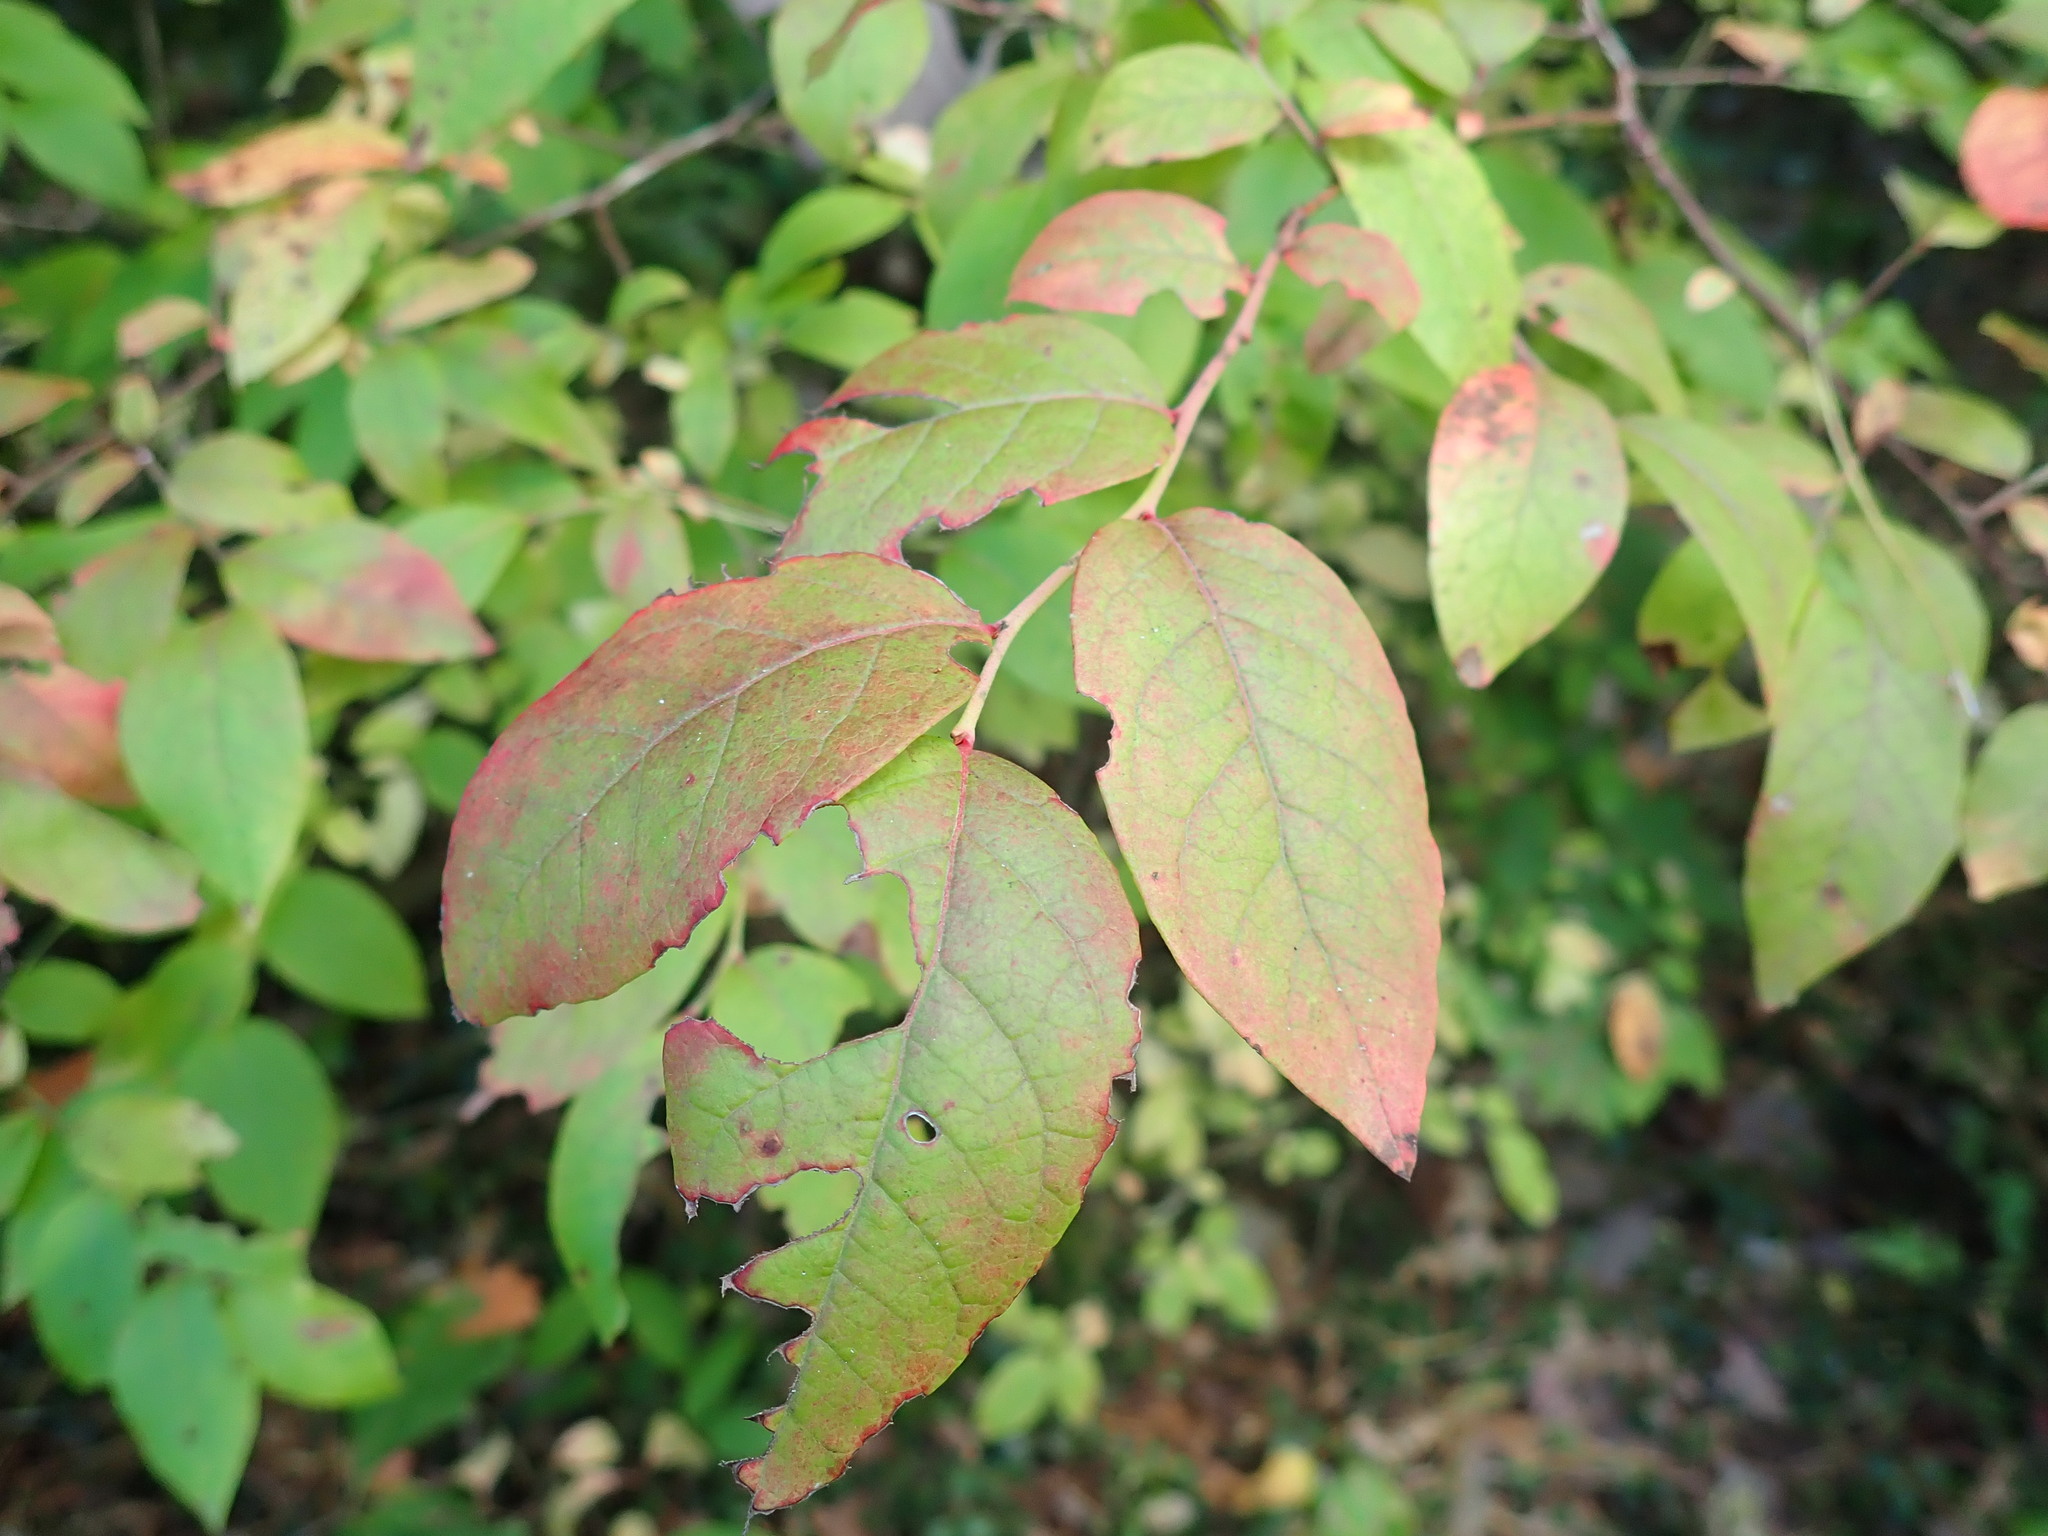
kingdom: Plantae
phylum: Tracheophyta
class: Magnoliopsida
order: Ericales
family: Ericaceae
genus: Vaccinium
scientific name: Vaccinium corymbosum
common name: Blueberry
